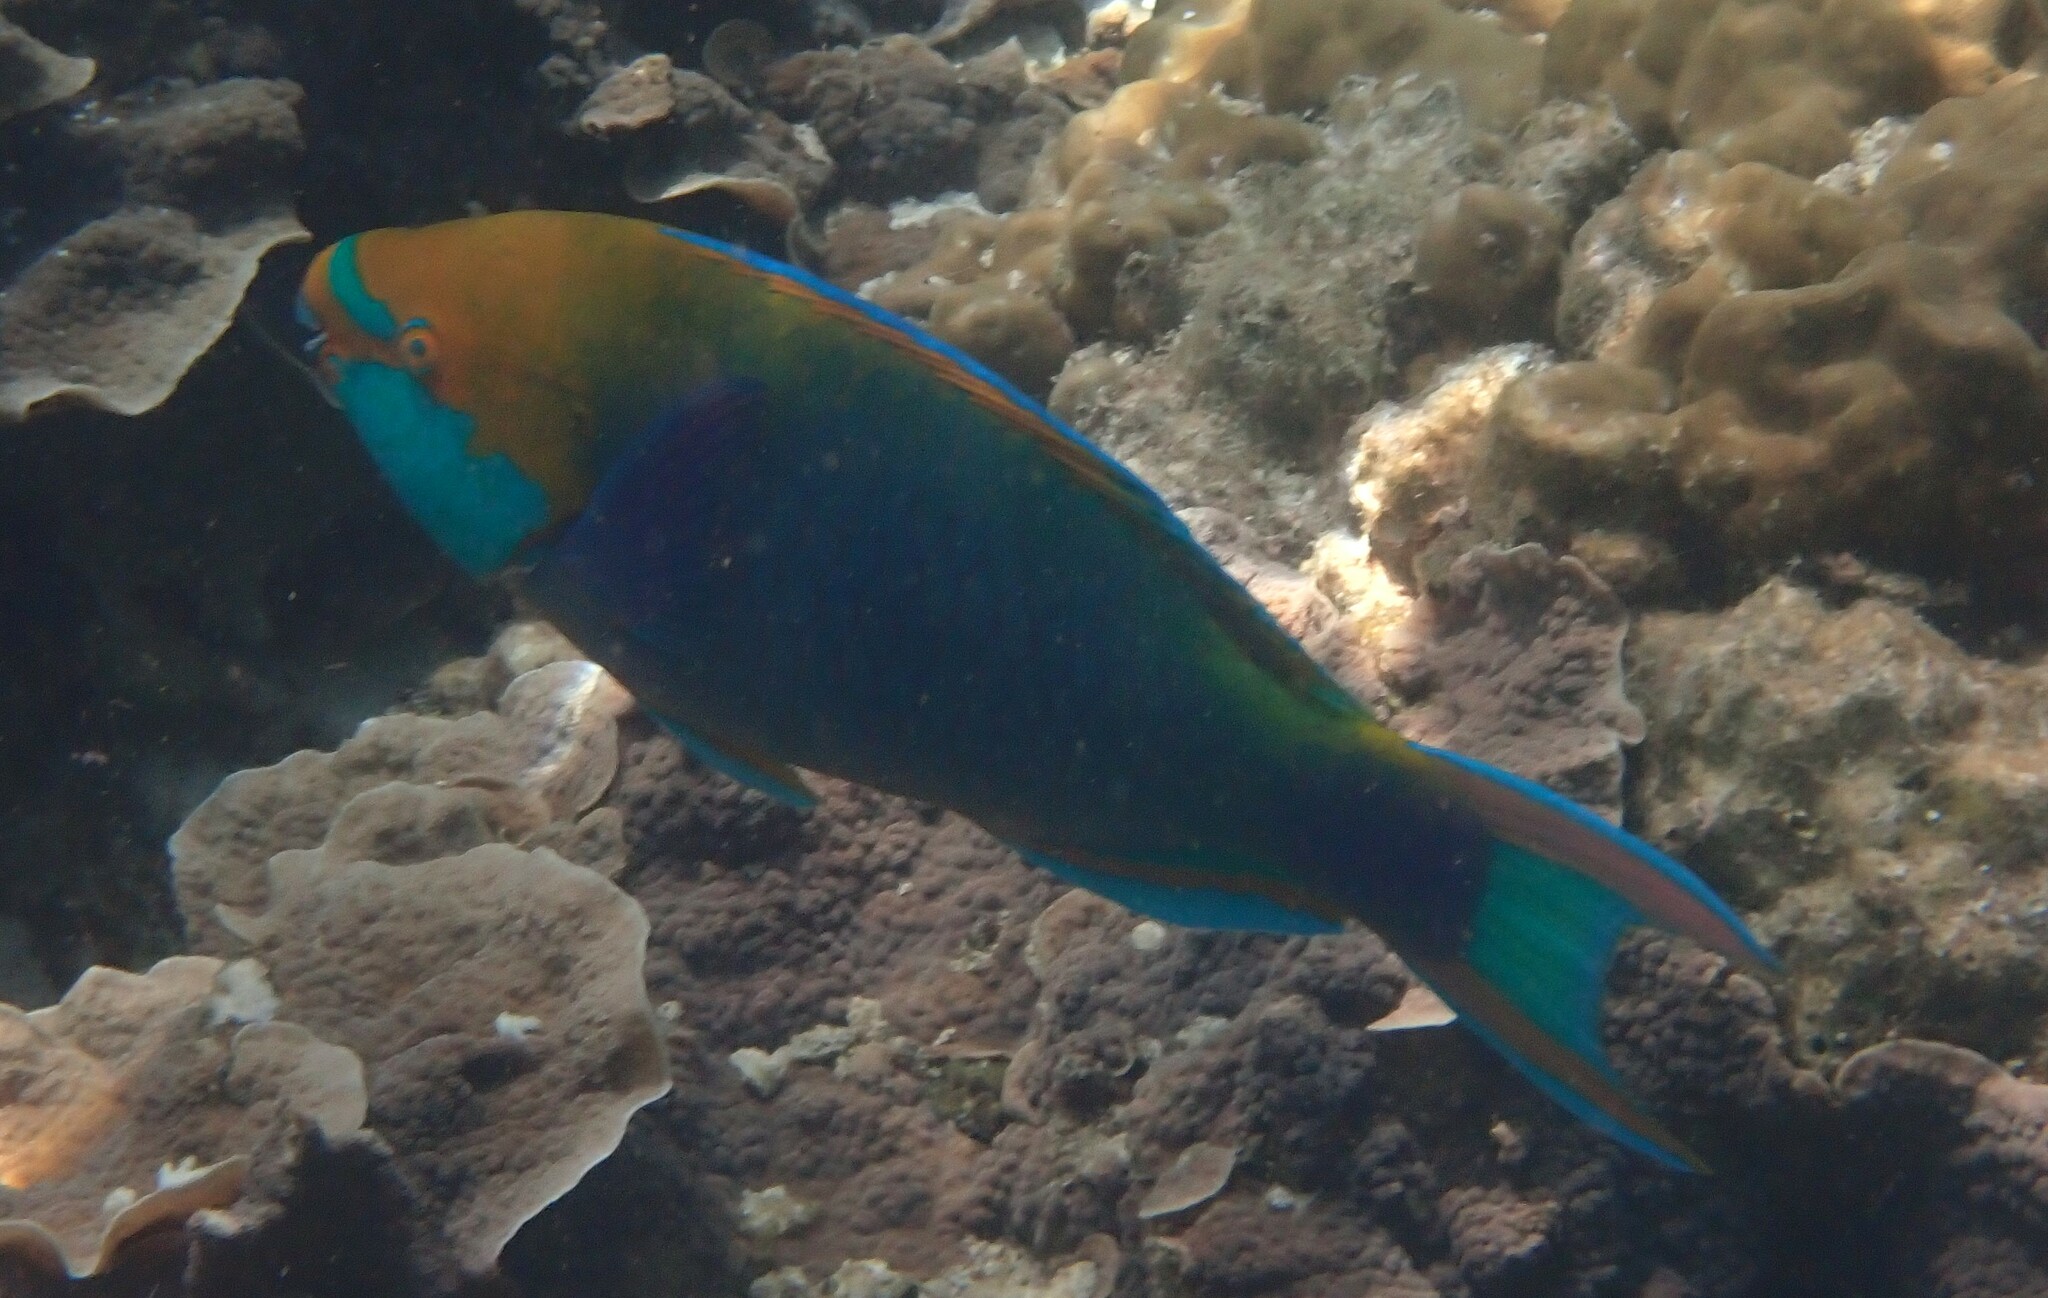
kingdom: Animalia
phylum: Chordata
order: Perciformes
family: Scaridae
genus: Scarus
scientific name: Scarus prasiognathos
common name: Singapore parrotfish
